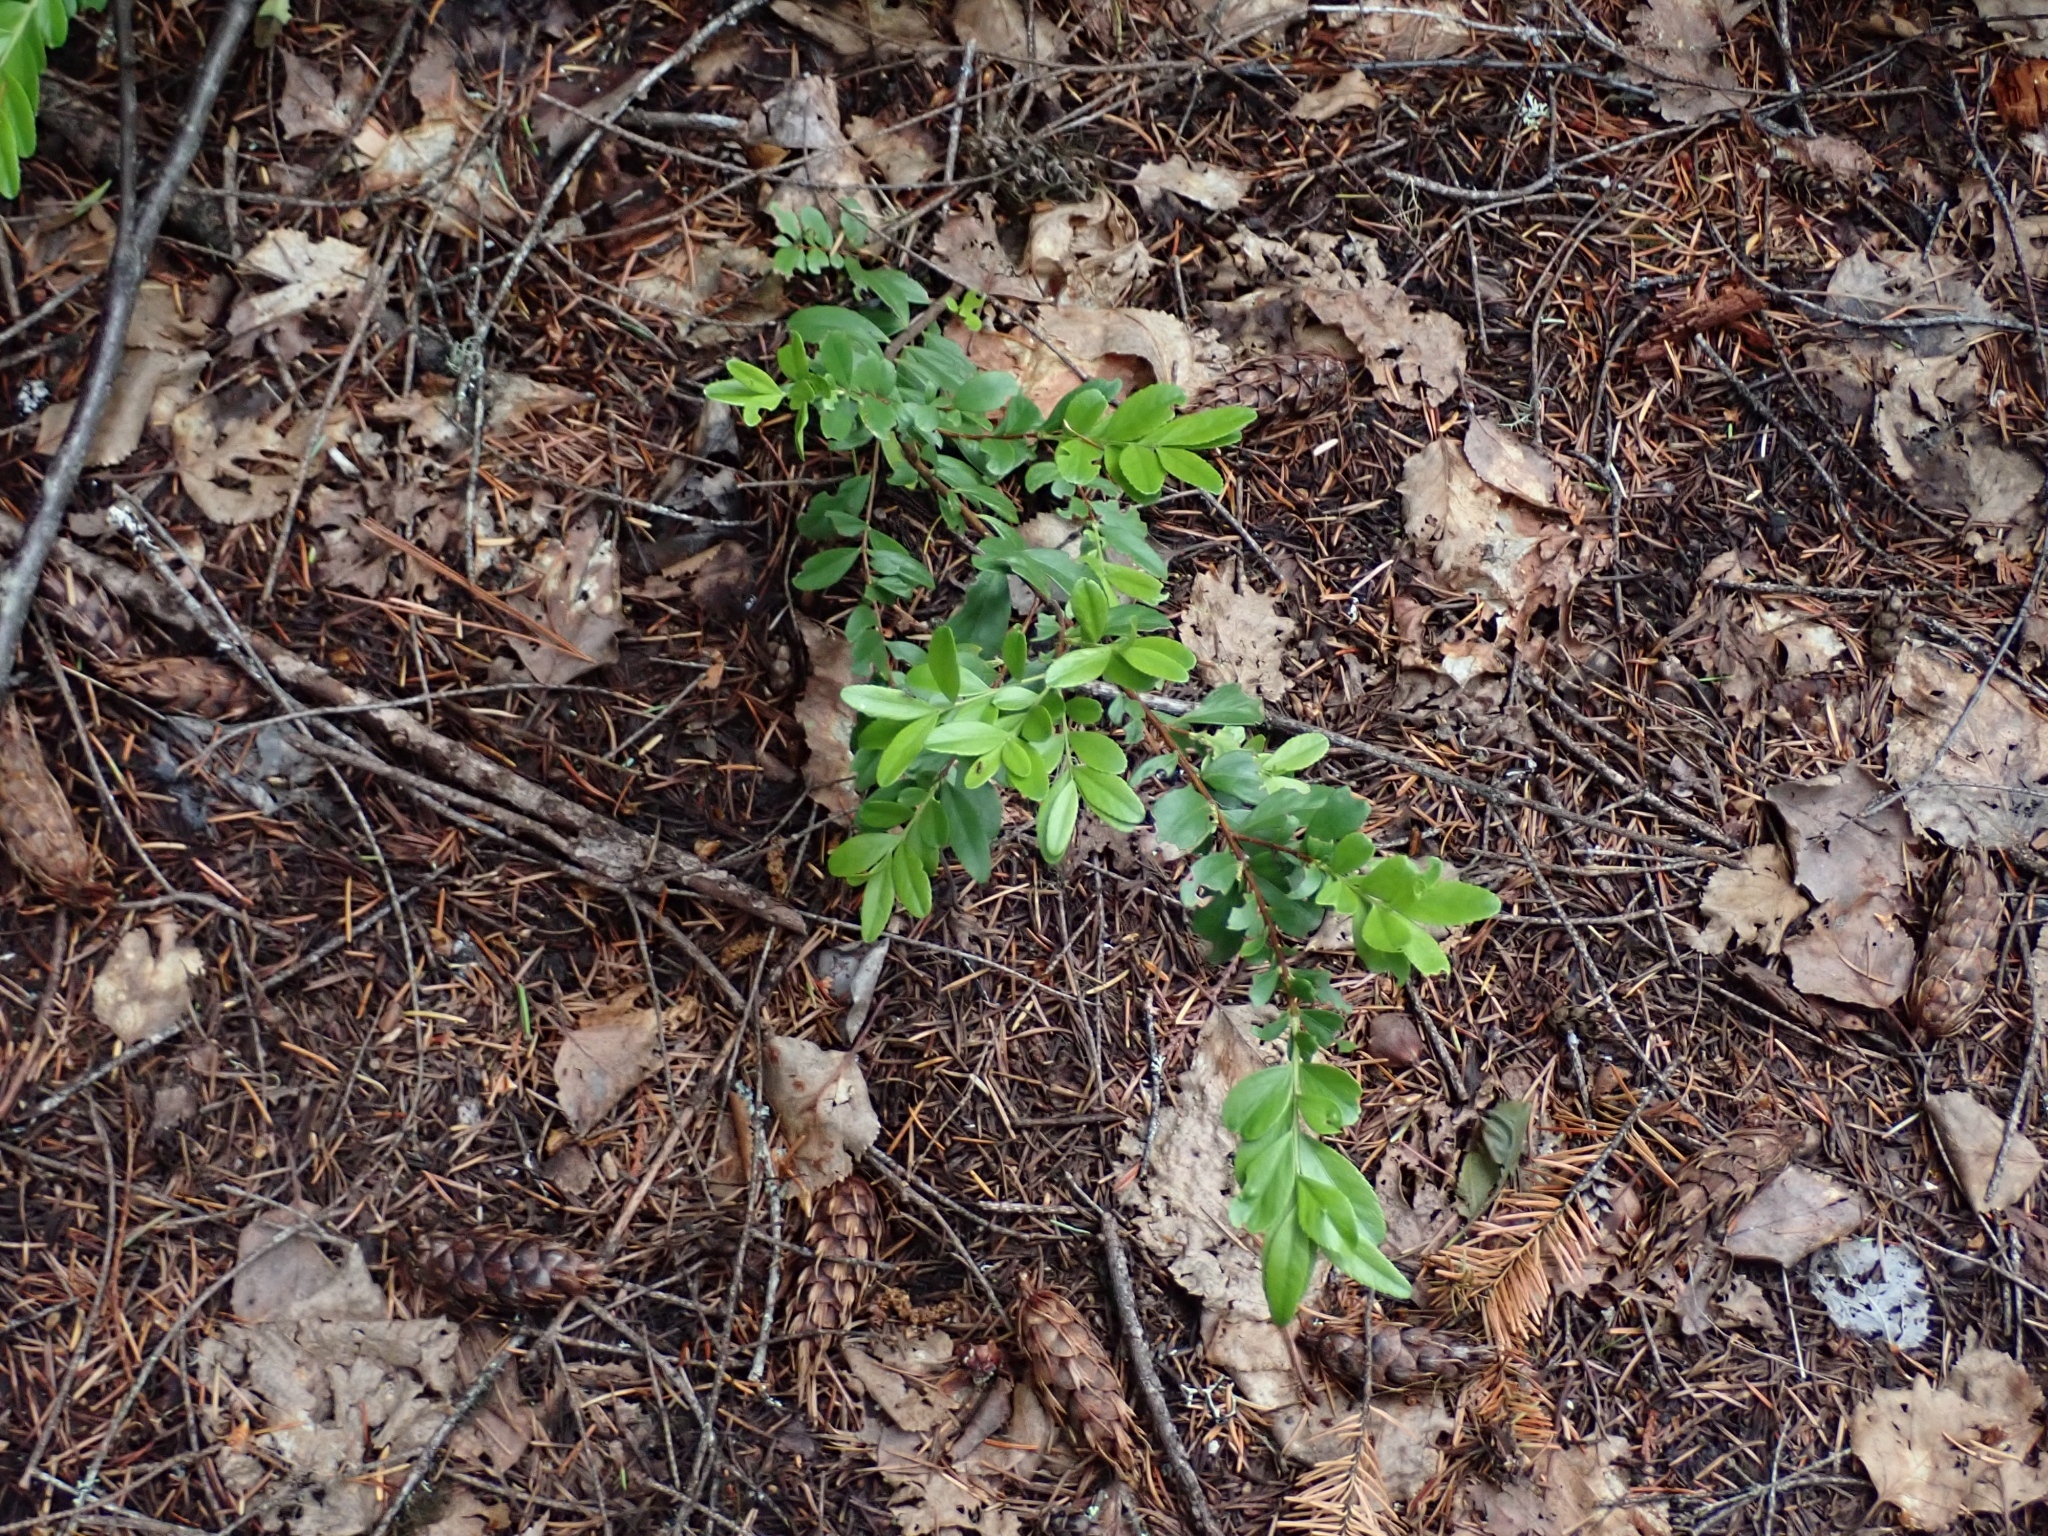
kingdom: Plantae
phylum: Tracheophyta
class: Magnoliopsida
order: Celastrales
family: Celastraceae
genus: Paxistima
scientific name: Paxistima myrsinites
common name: Mountain-lover
